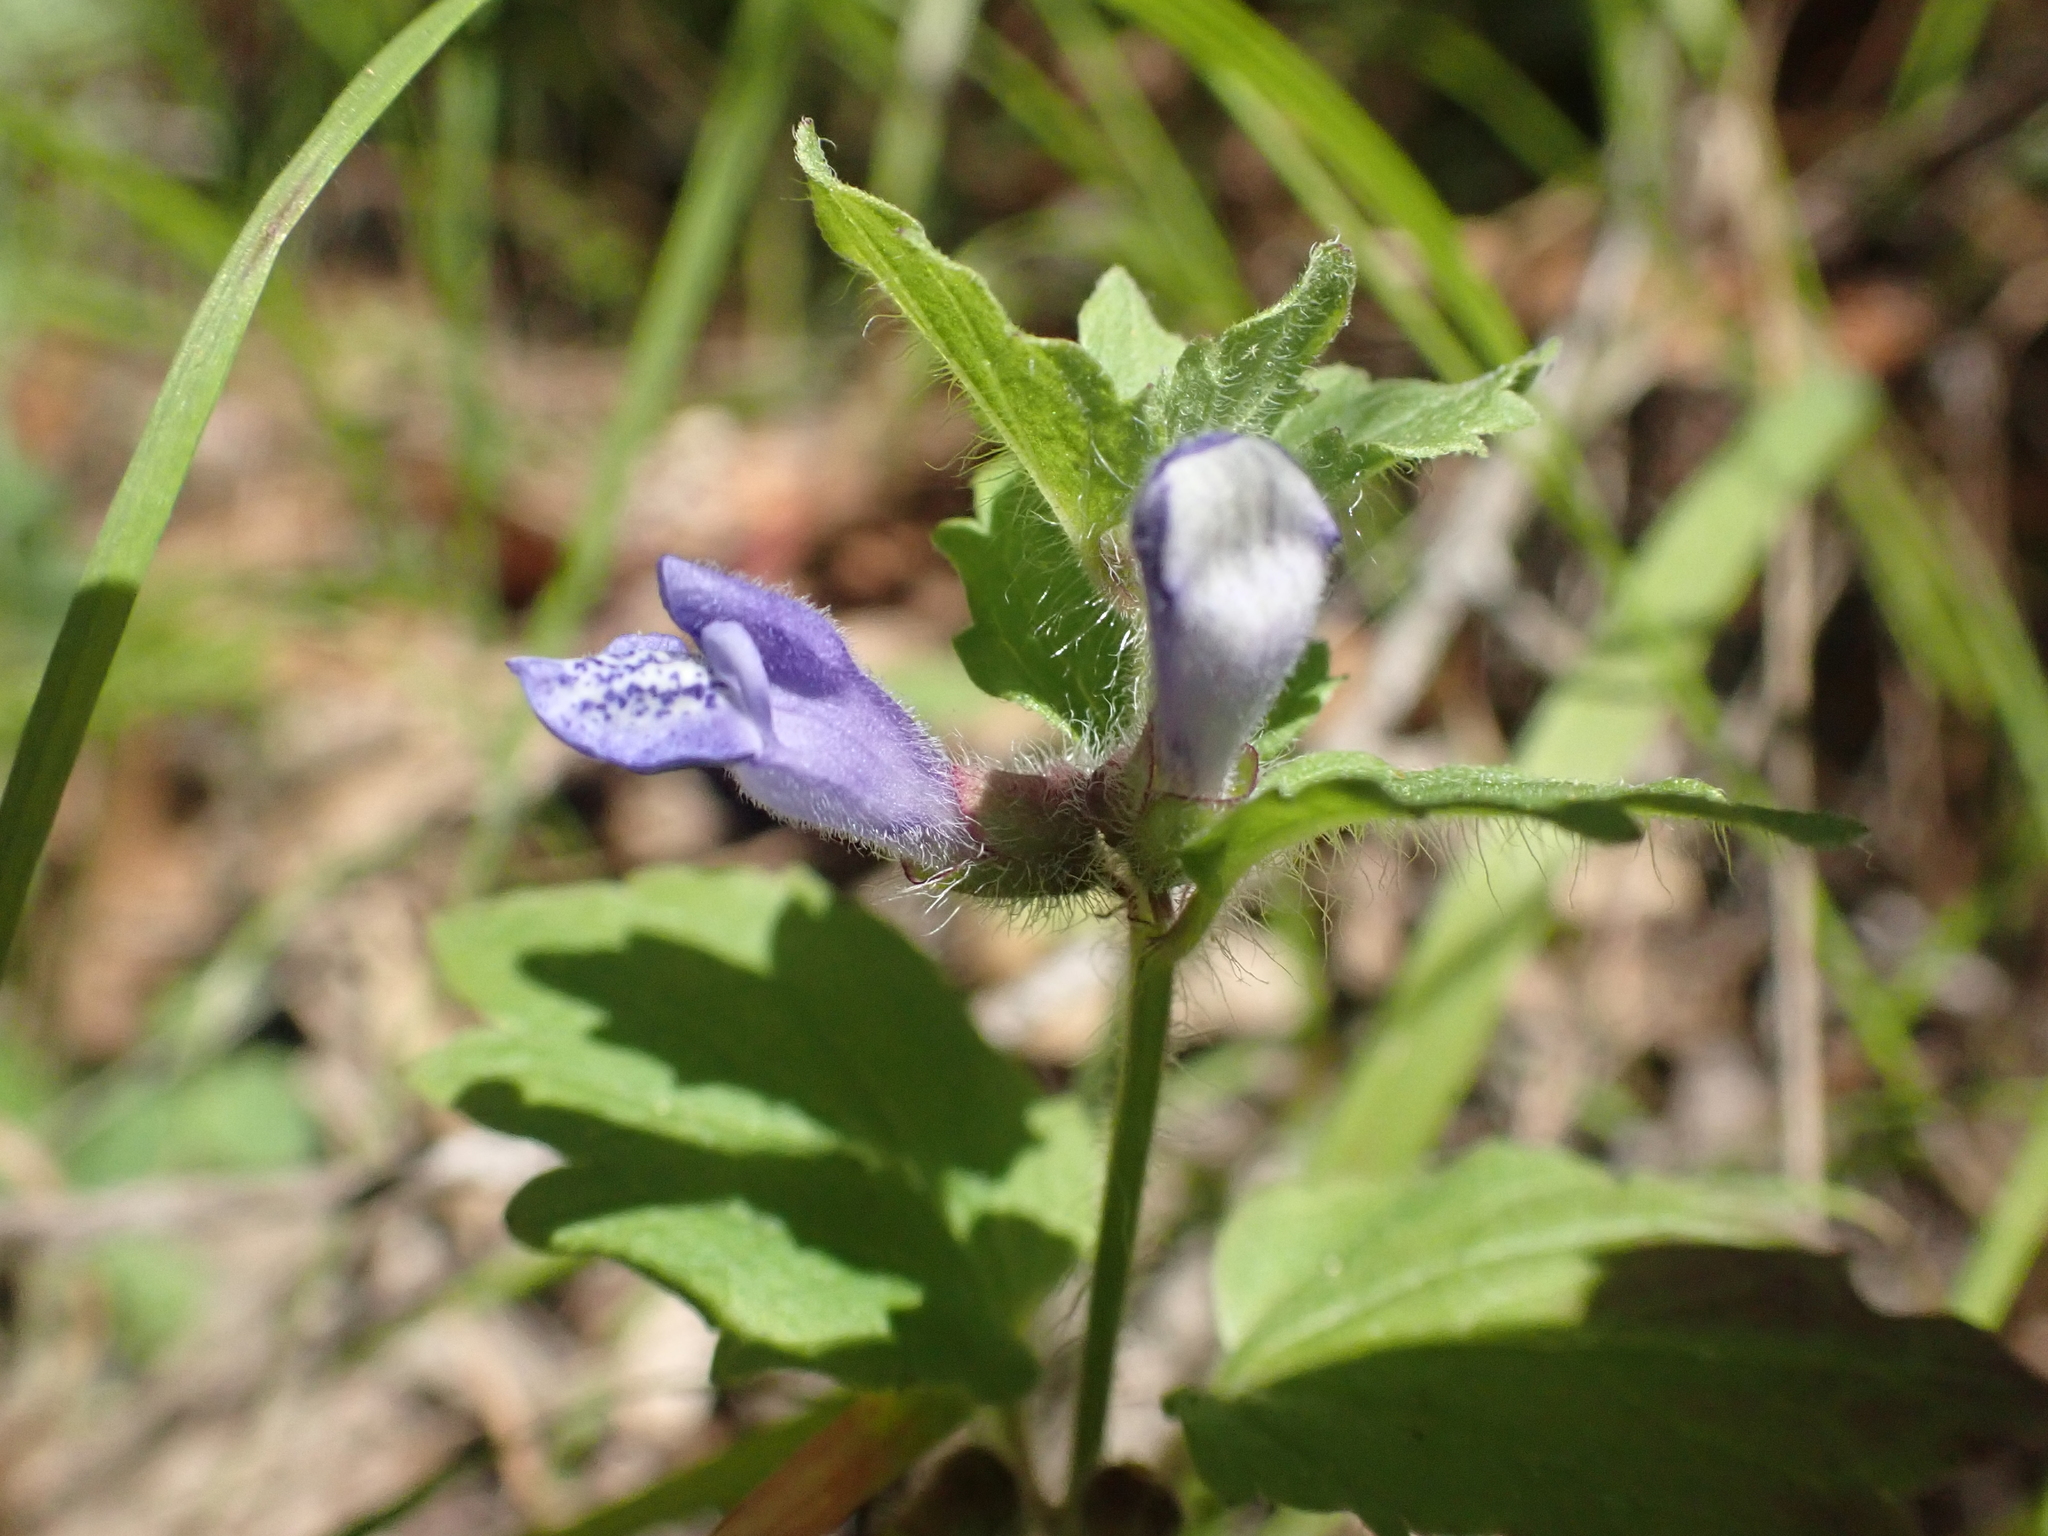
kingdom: Plantae
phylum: Tracheophyta
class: Magnoliopsida
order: Lamiales
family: Lamiaceae
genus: Scutellaria
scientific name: Scutellaria tuberosa
